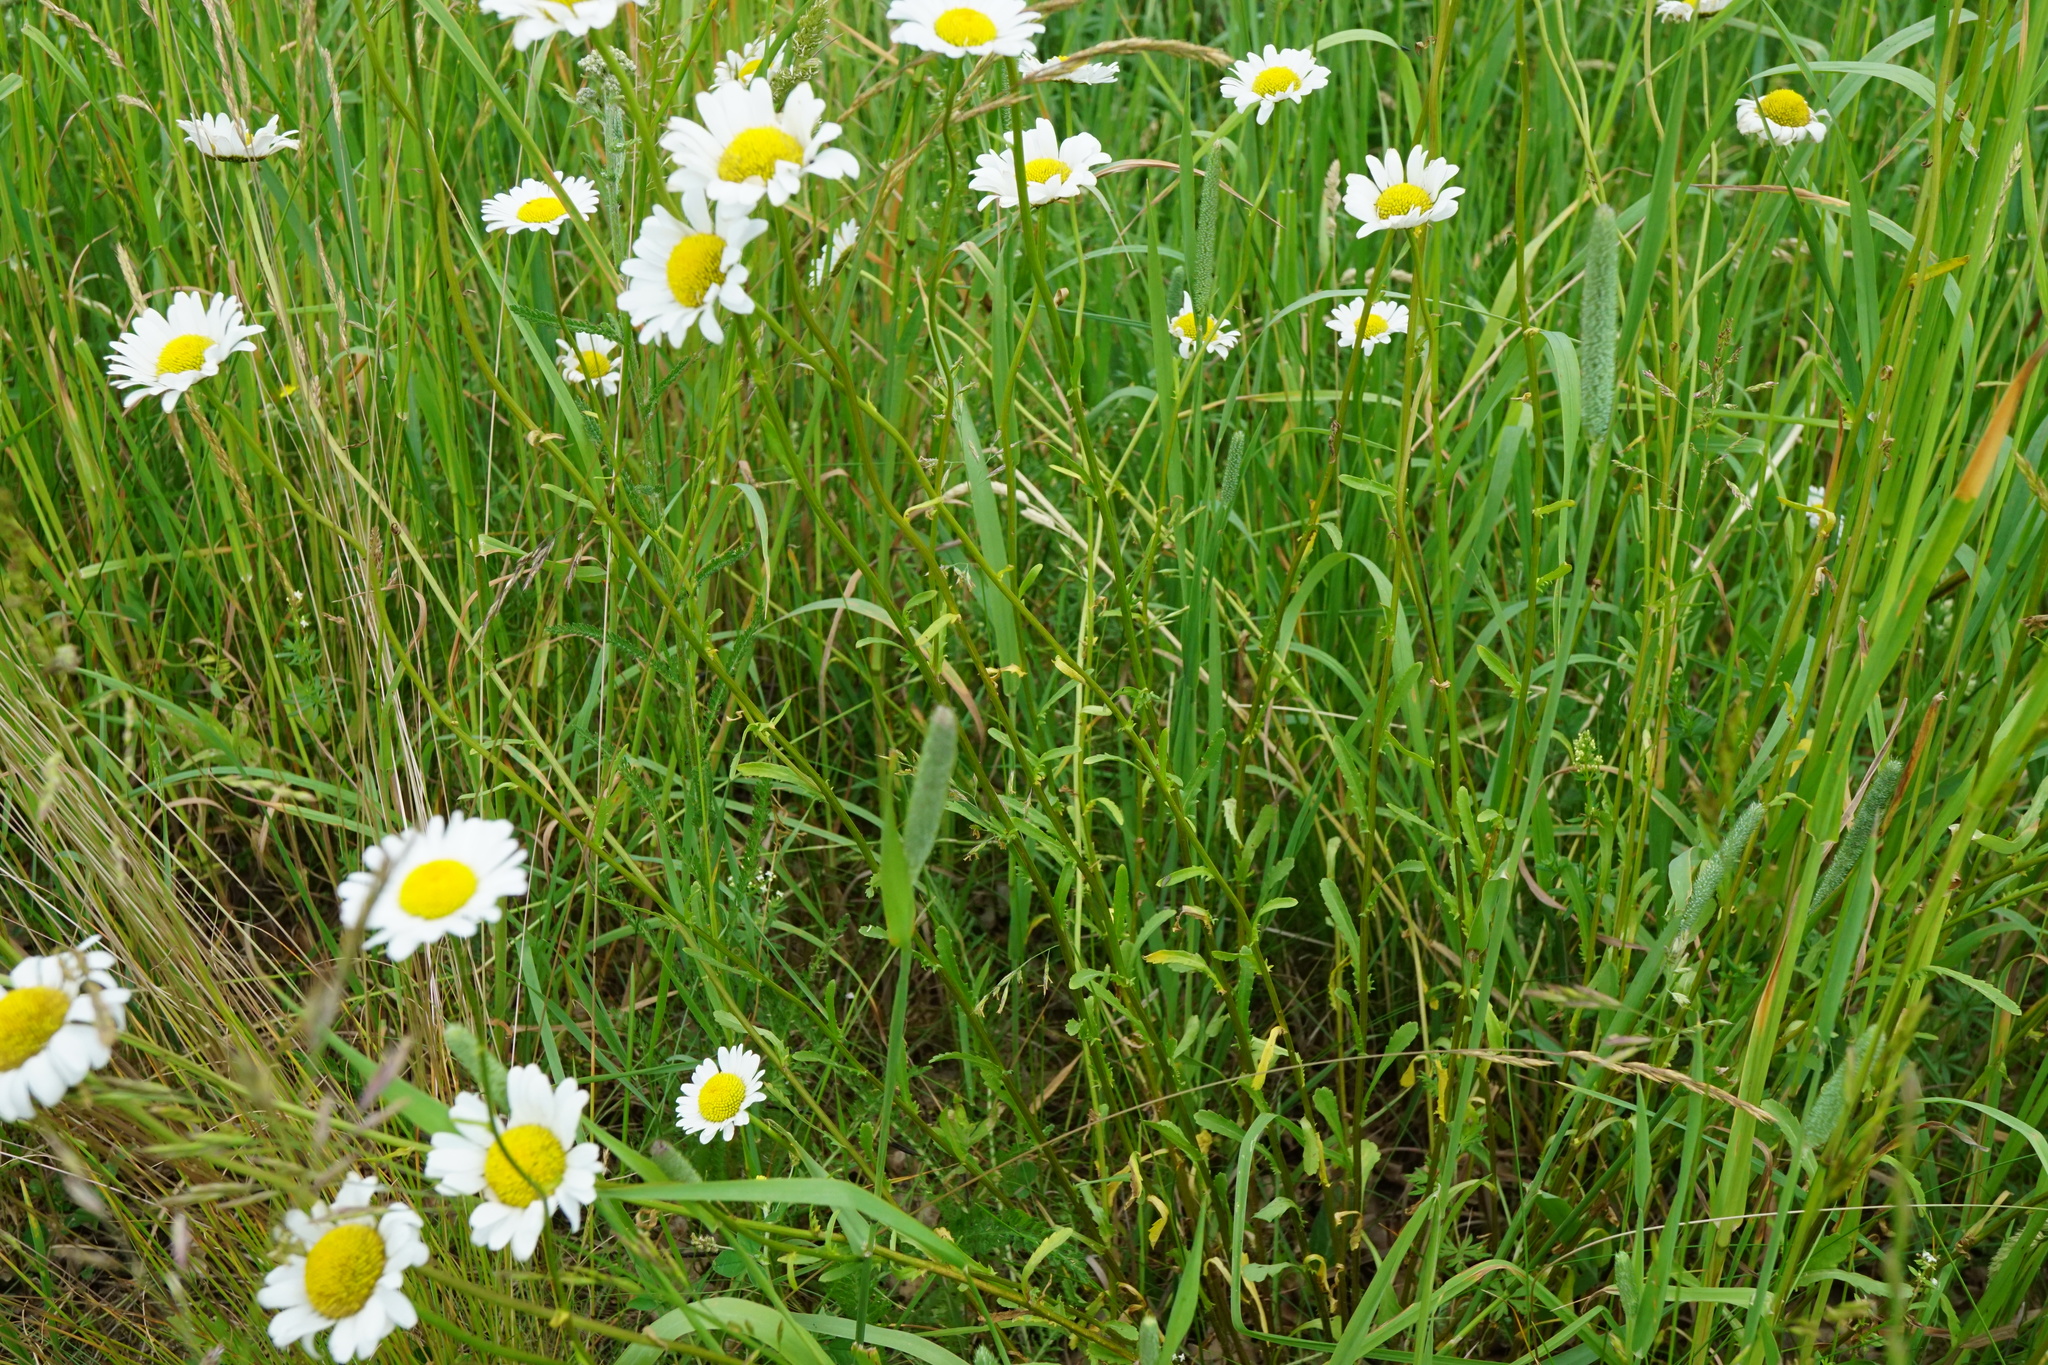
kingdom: Plantae
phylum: Tracheophyta
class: Magnoliopsida
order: Asterales
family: Asteraceae
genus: Leucanthemum
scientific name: Leucanthemum vulgare
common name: Oxeye daisy
